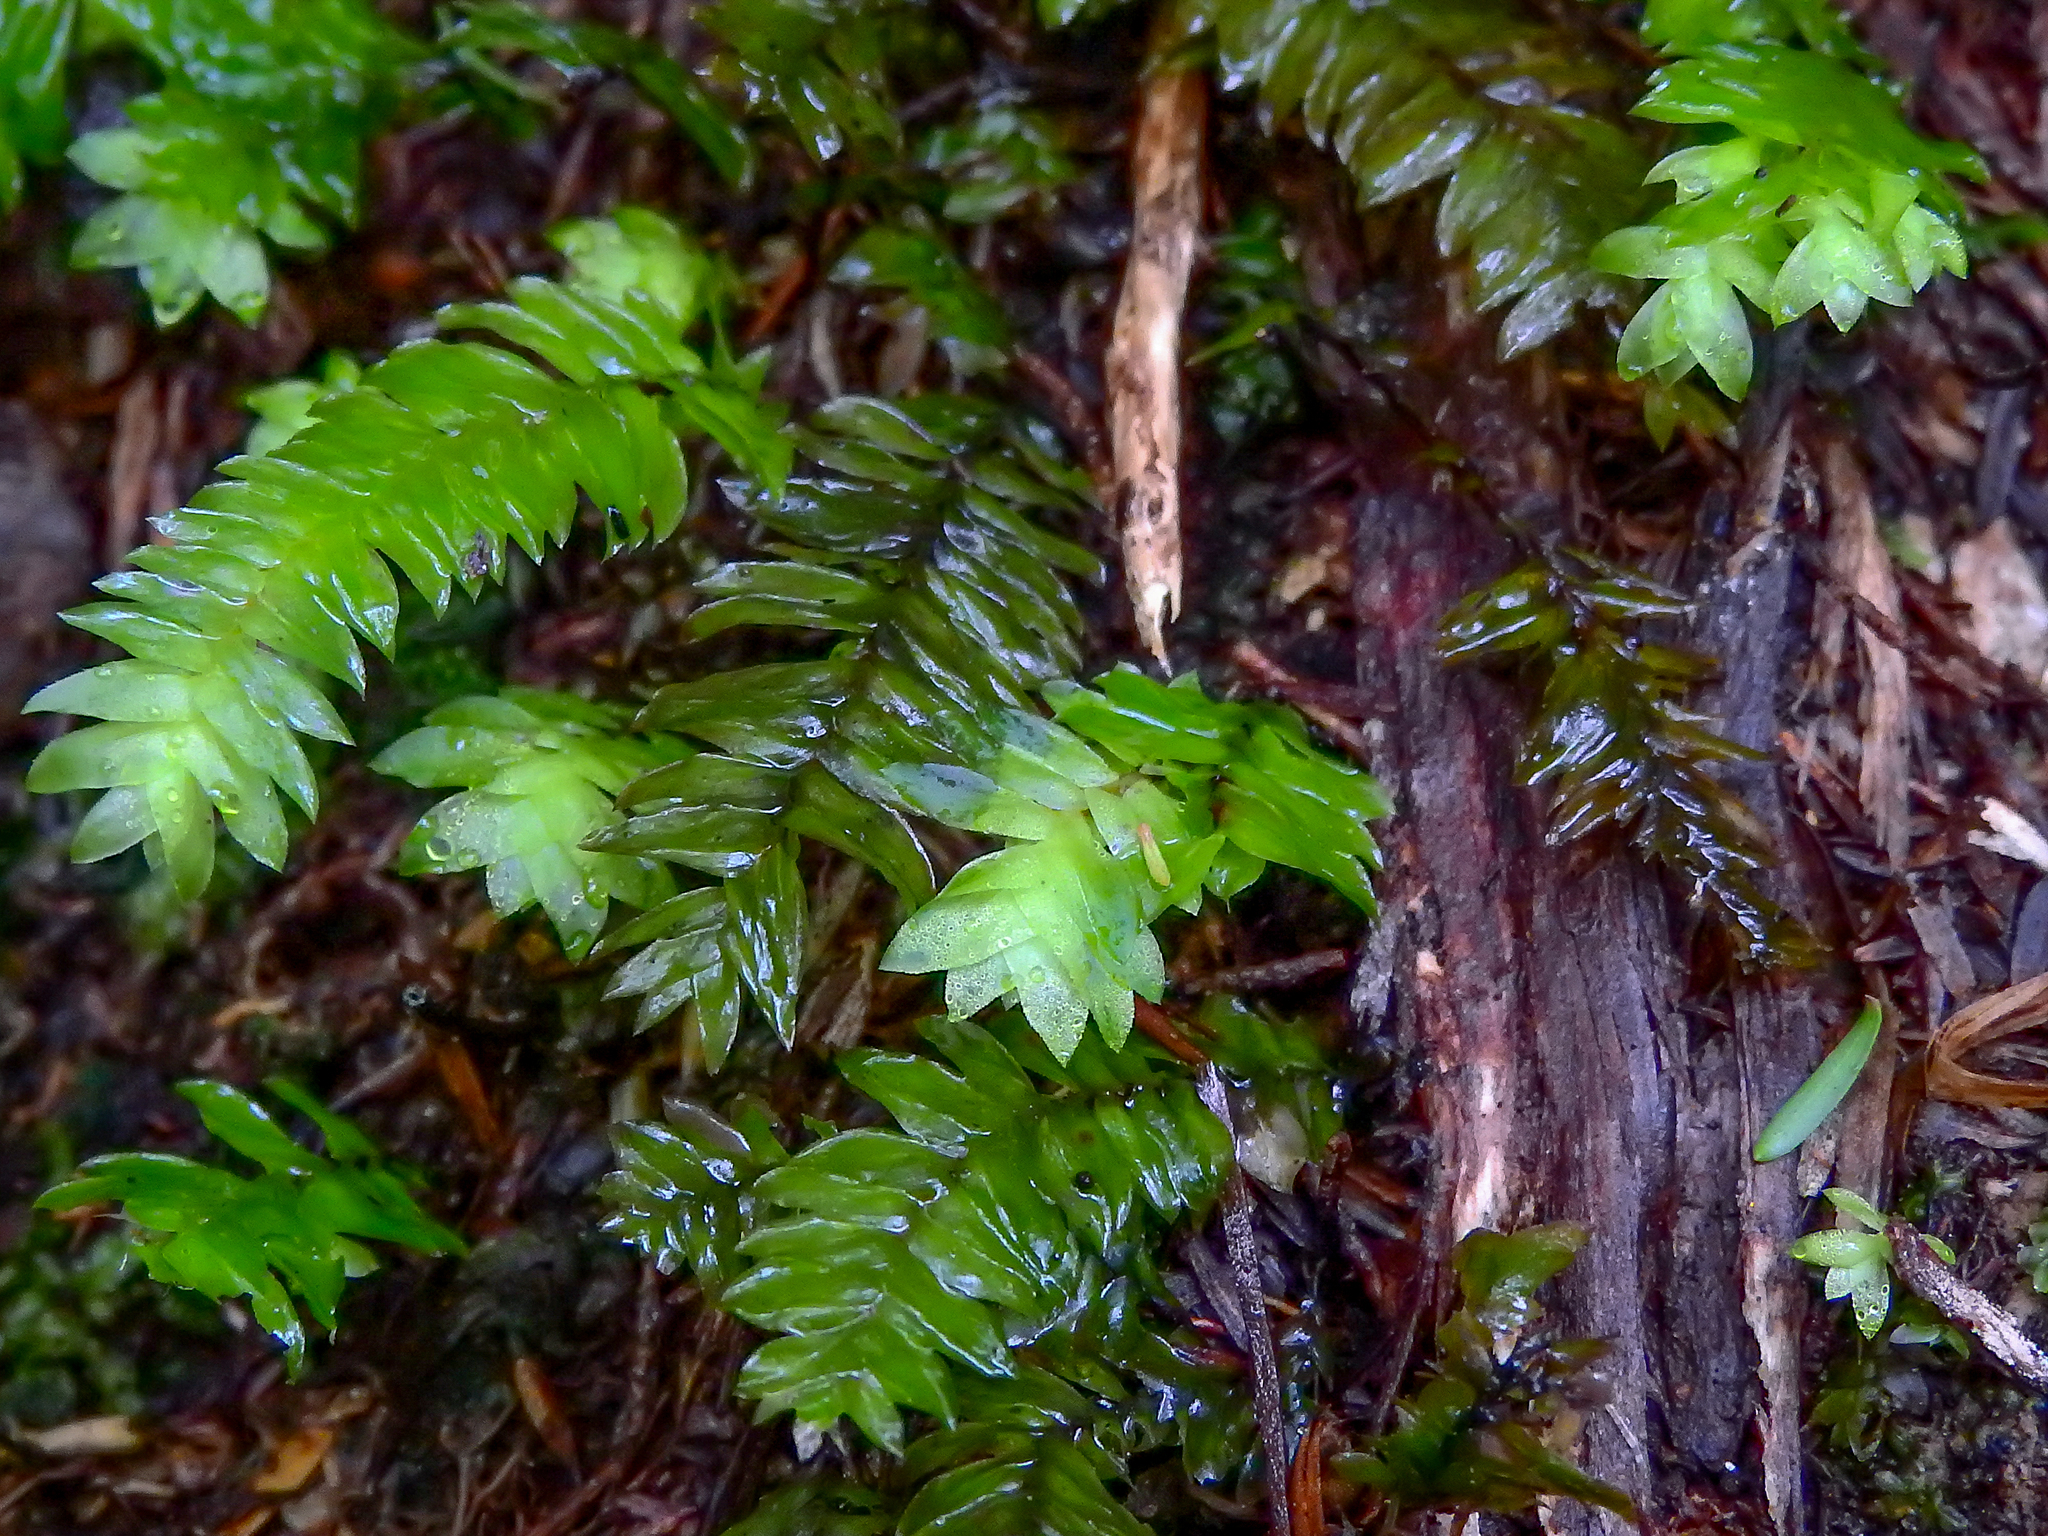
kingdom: Plantae
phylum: Bryophyta
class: Bryopsida
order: Hypopterygiales
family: Hypopterygiaceae
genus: Cyathophorum
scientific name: Cyathophorum bulbosum
